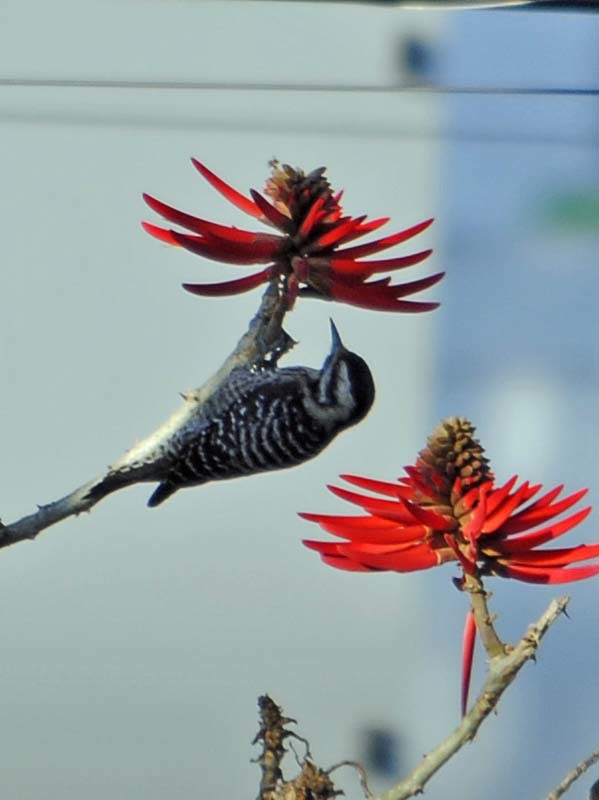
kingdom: Animalia
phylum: Chordata
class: Aves
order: Piciformes
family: Picidae
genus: Dryobates
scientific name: Dryobates scalaris
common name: Ladder-backed woodpecker
